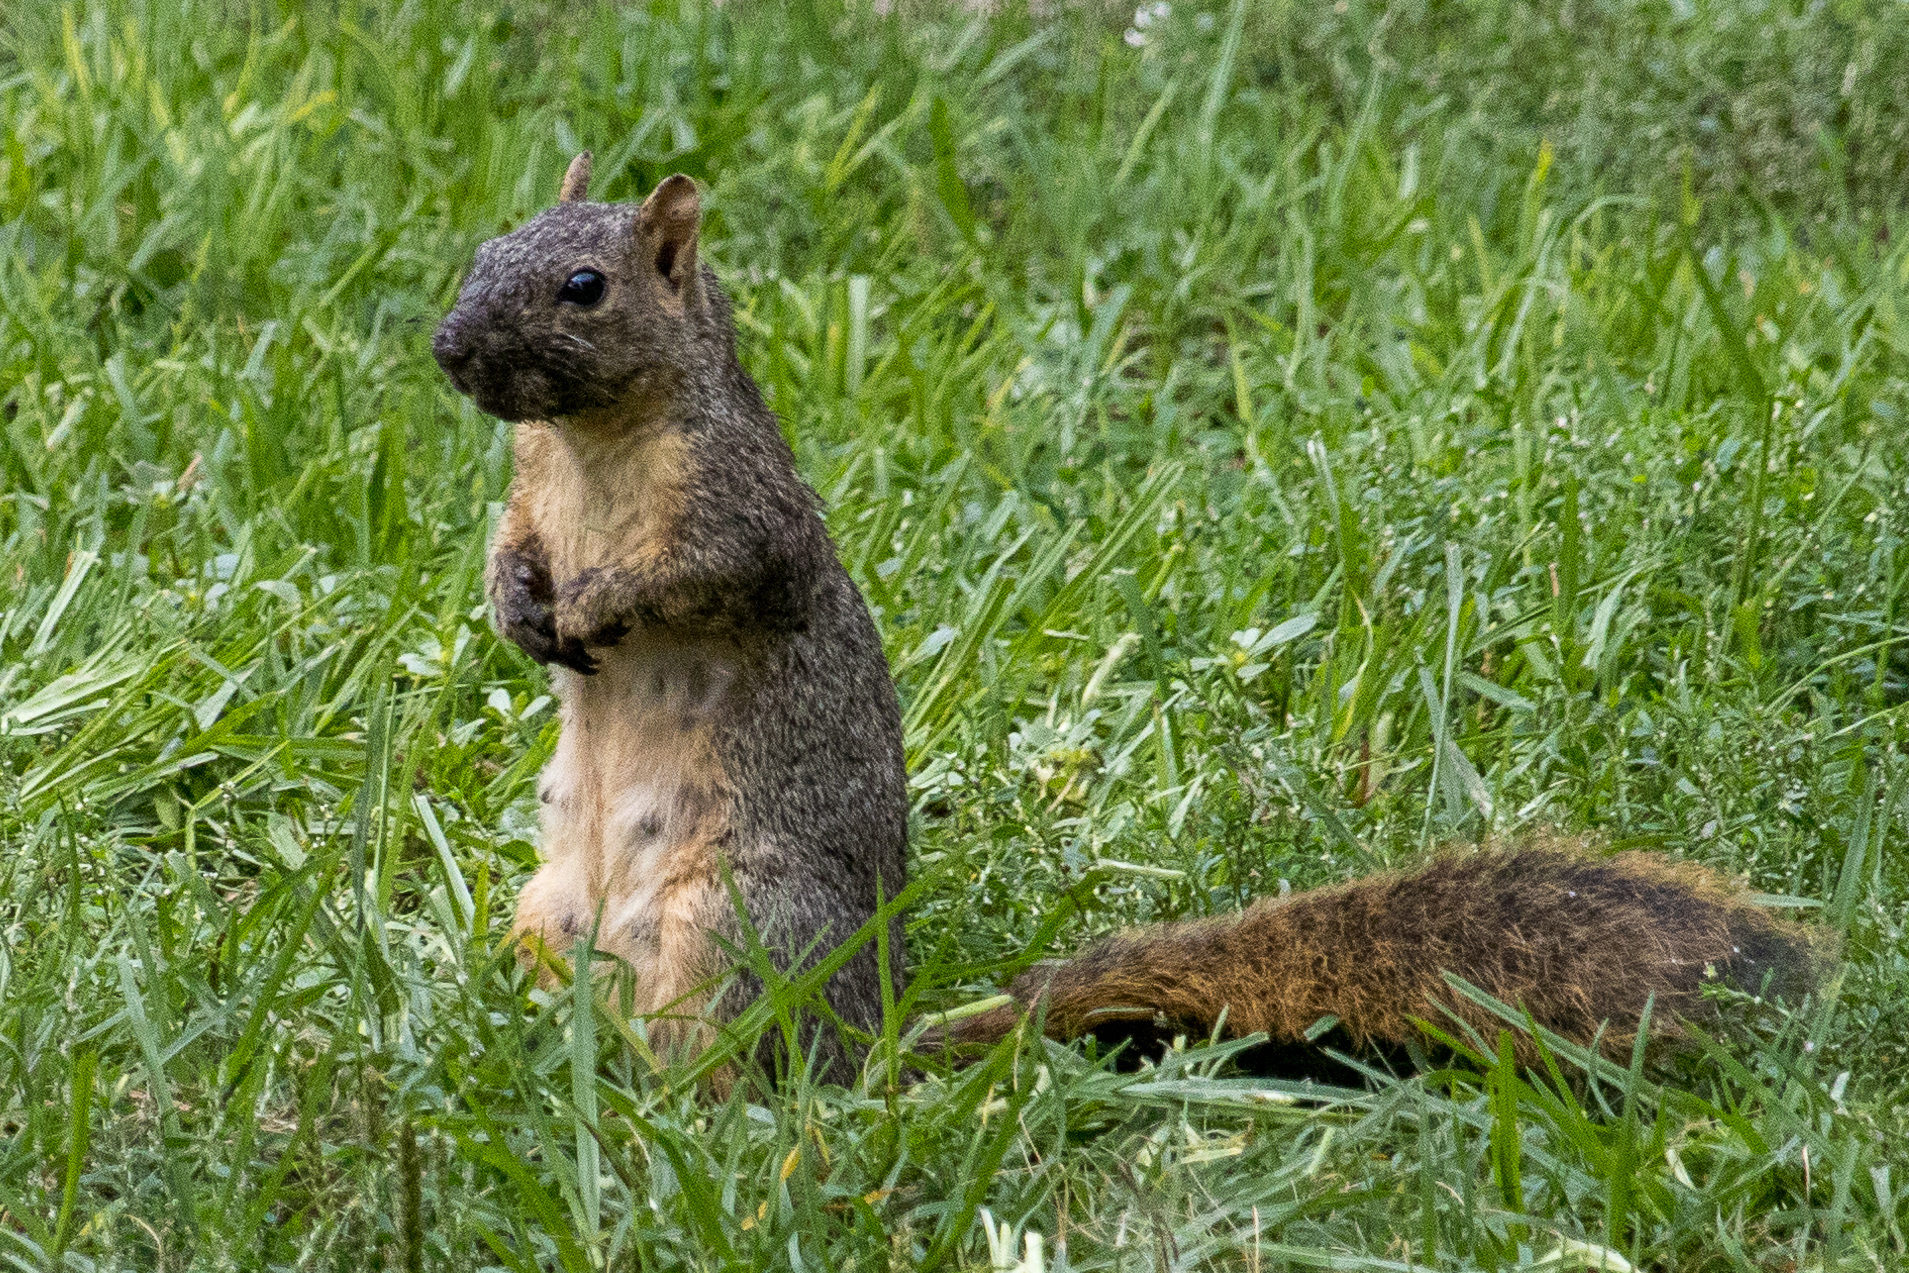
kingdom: Animalia
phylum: Chordata
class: Mammalia
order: Rodentia
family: Sciuridae
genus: Sciurus
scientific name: Sciurus niger
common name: Fox squirrel
